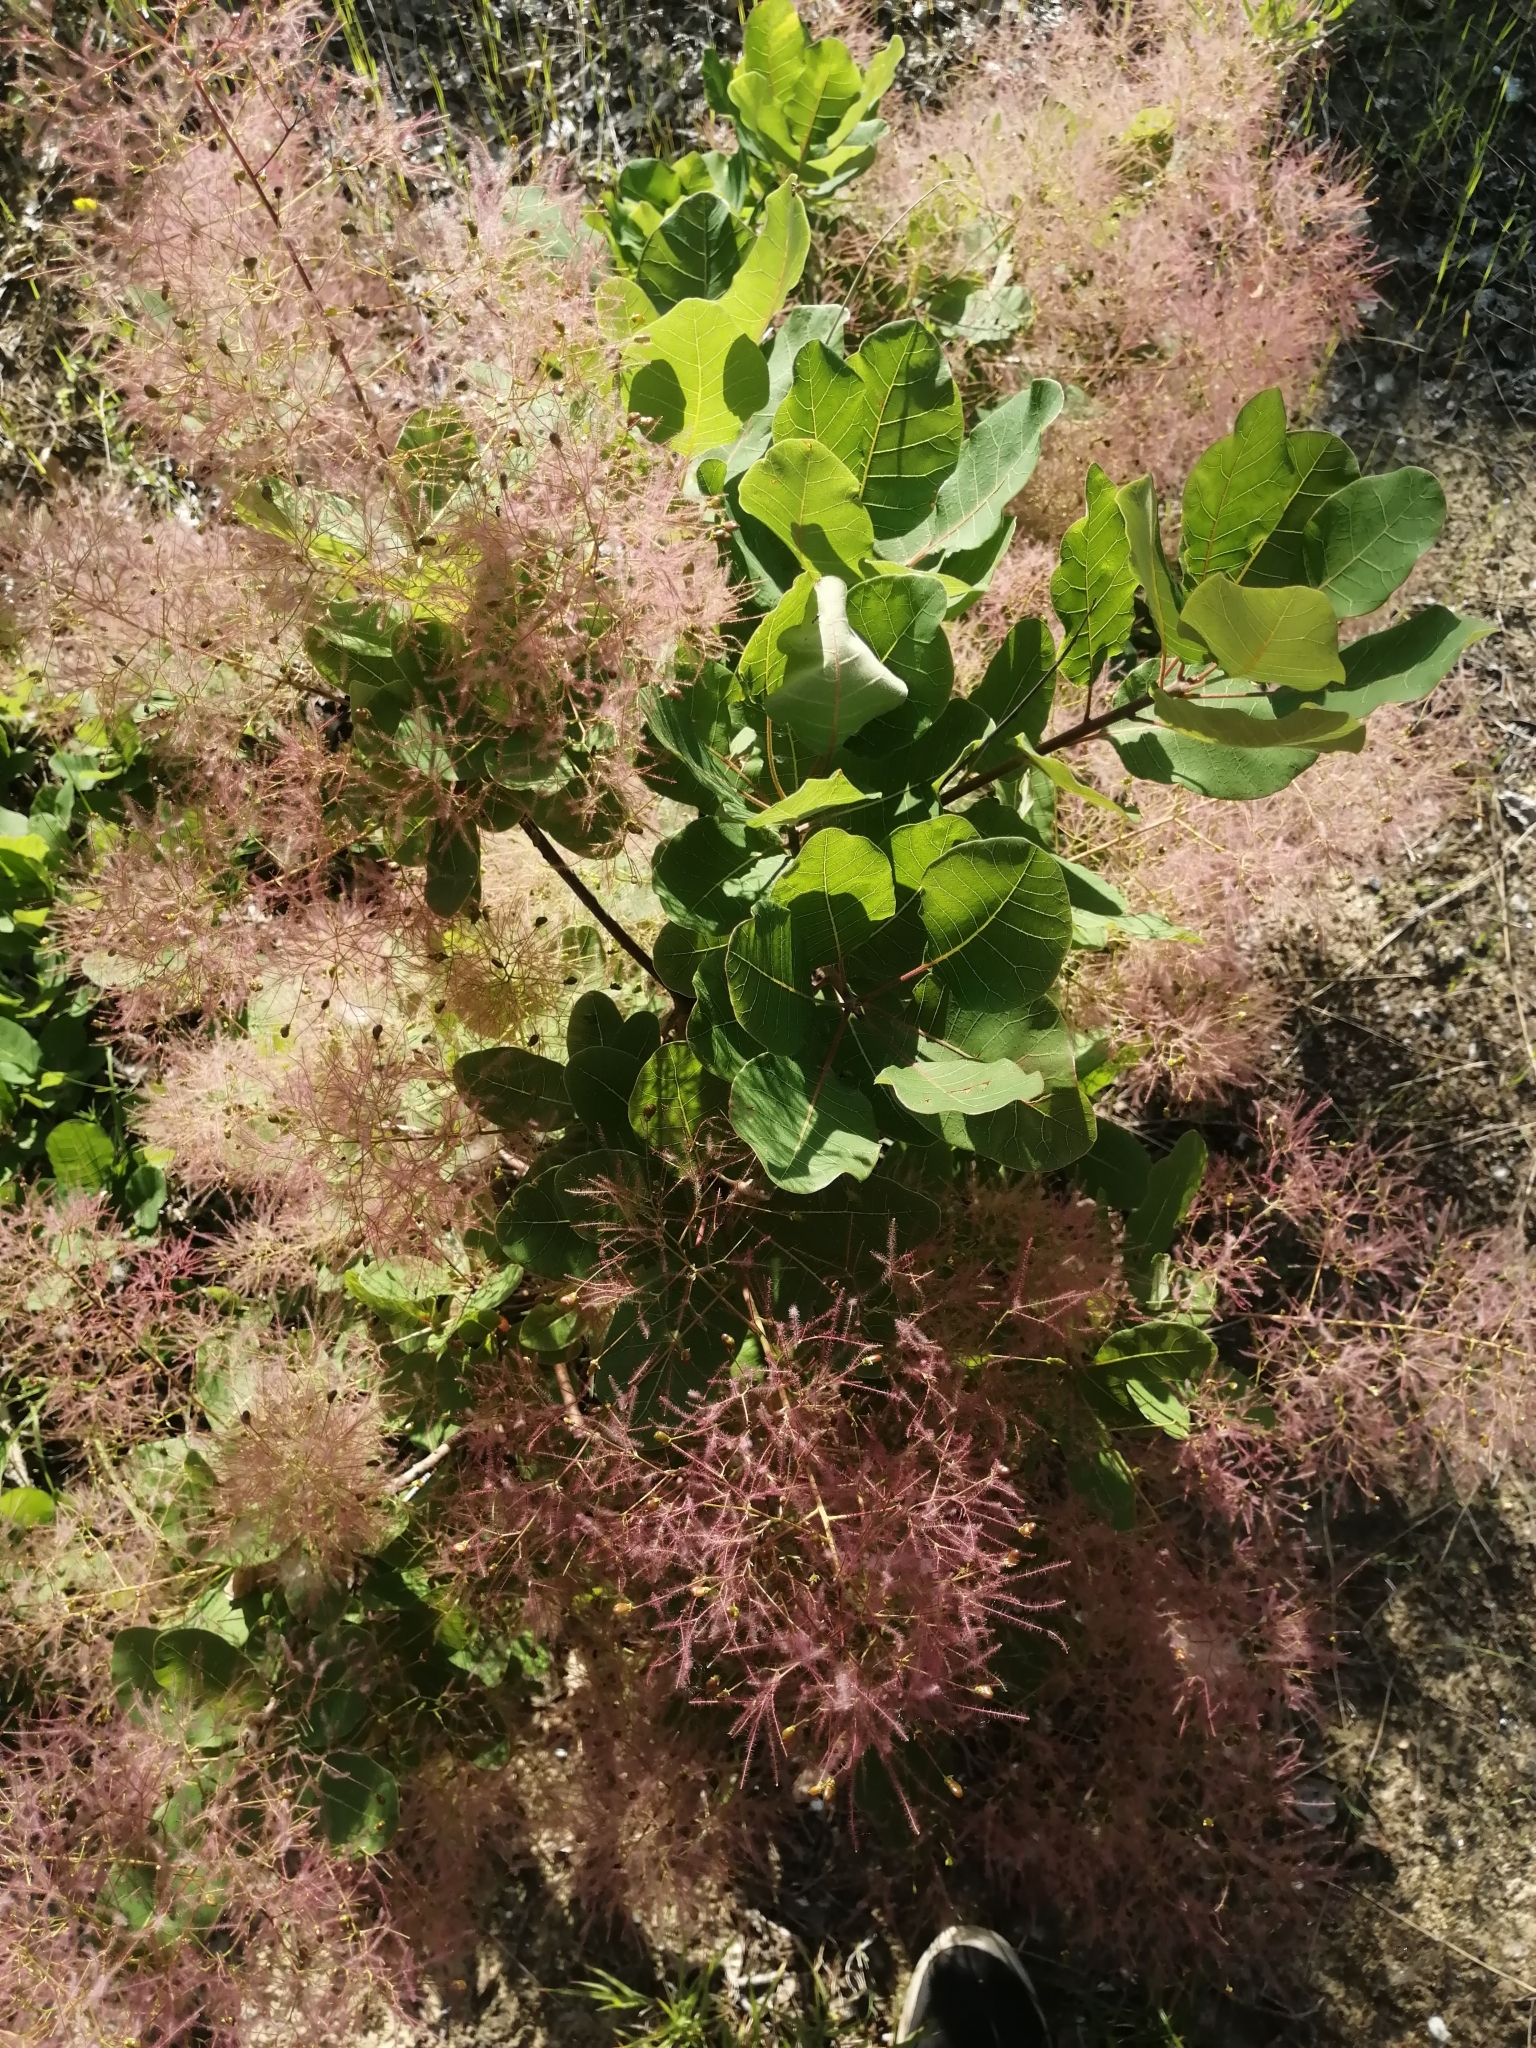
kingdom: Plantae
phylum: Tracheophyta
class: Magnoliopsida
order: Sapindales
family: Anacardiaceae
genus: Cotinus
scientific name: Cotinus coggygria
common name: Smoke-tree
